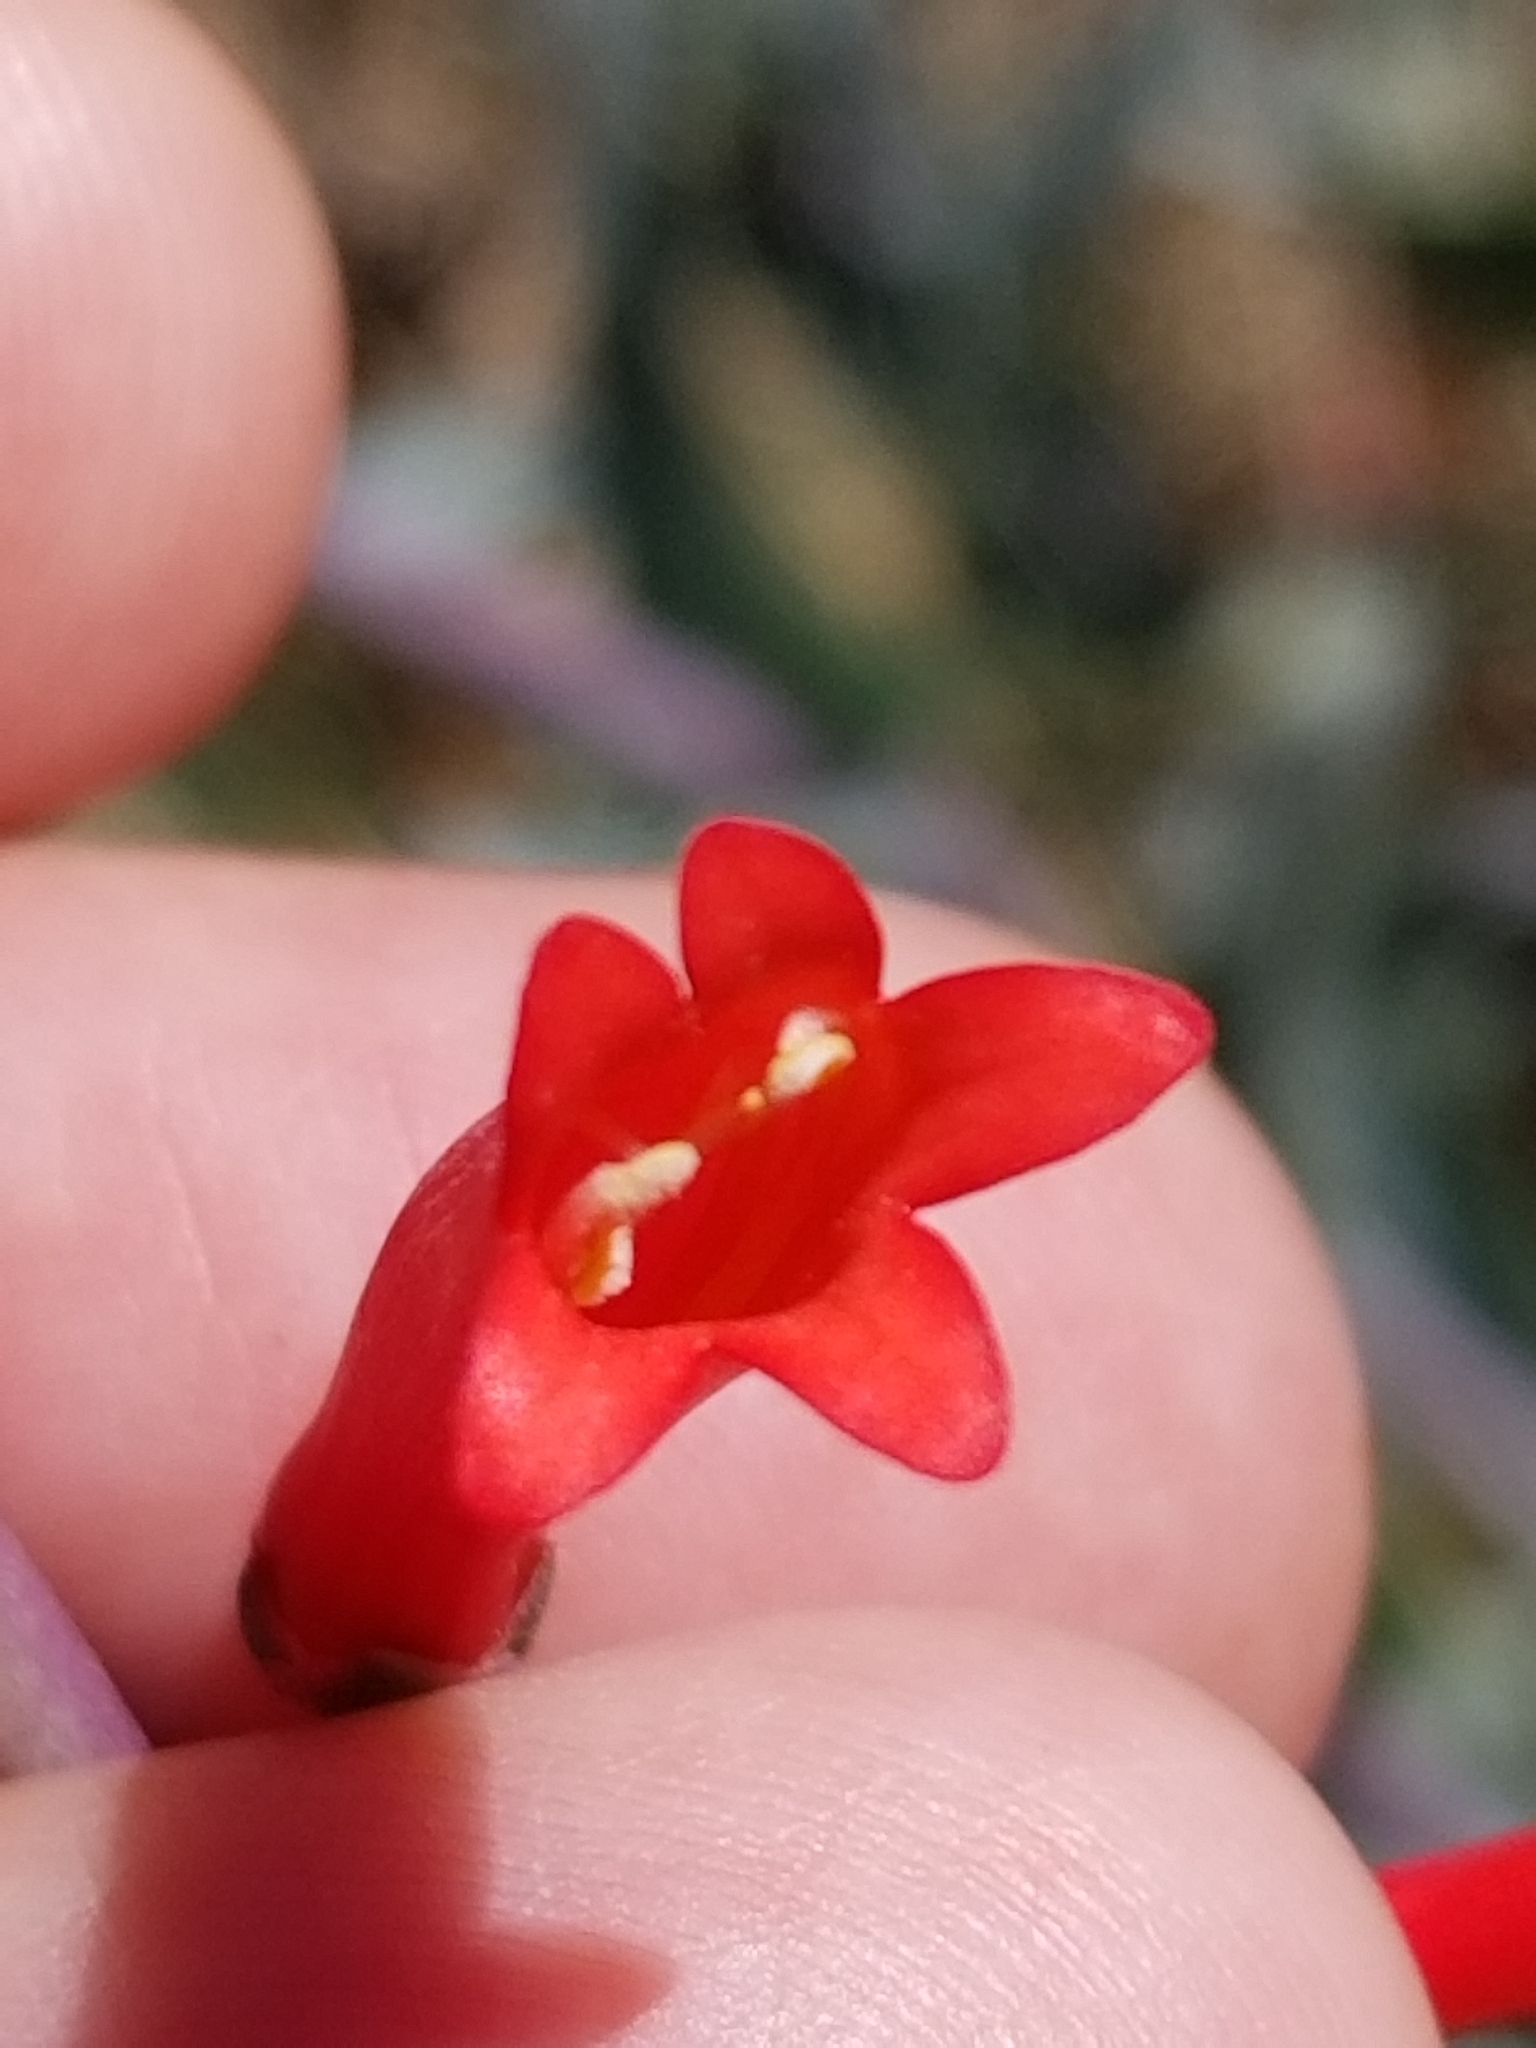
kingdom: Plantae
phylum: Tracheophyta
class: Magnoliopsida
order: Lamiales
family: Plantaginaceae
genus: Penstemon
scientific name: Penstemon centranthifolius
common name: Scarlet bugler
